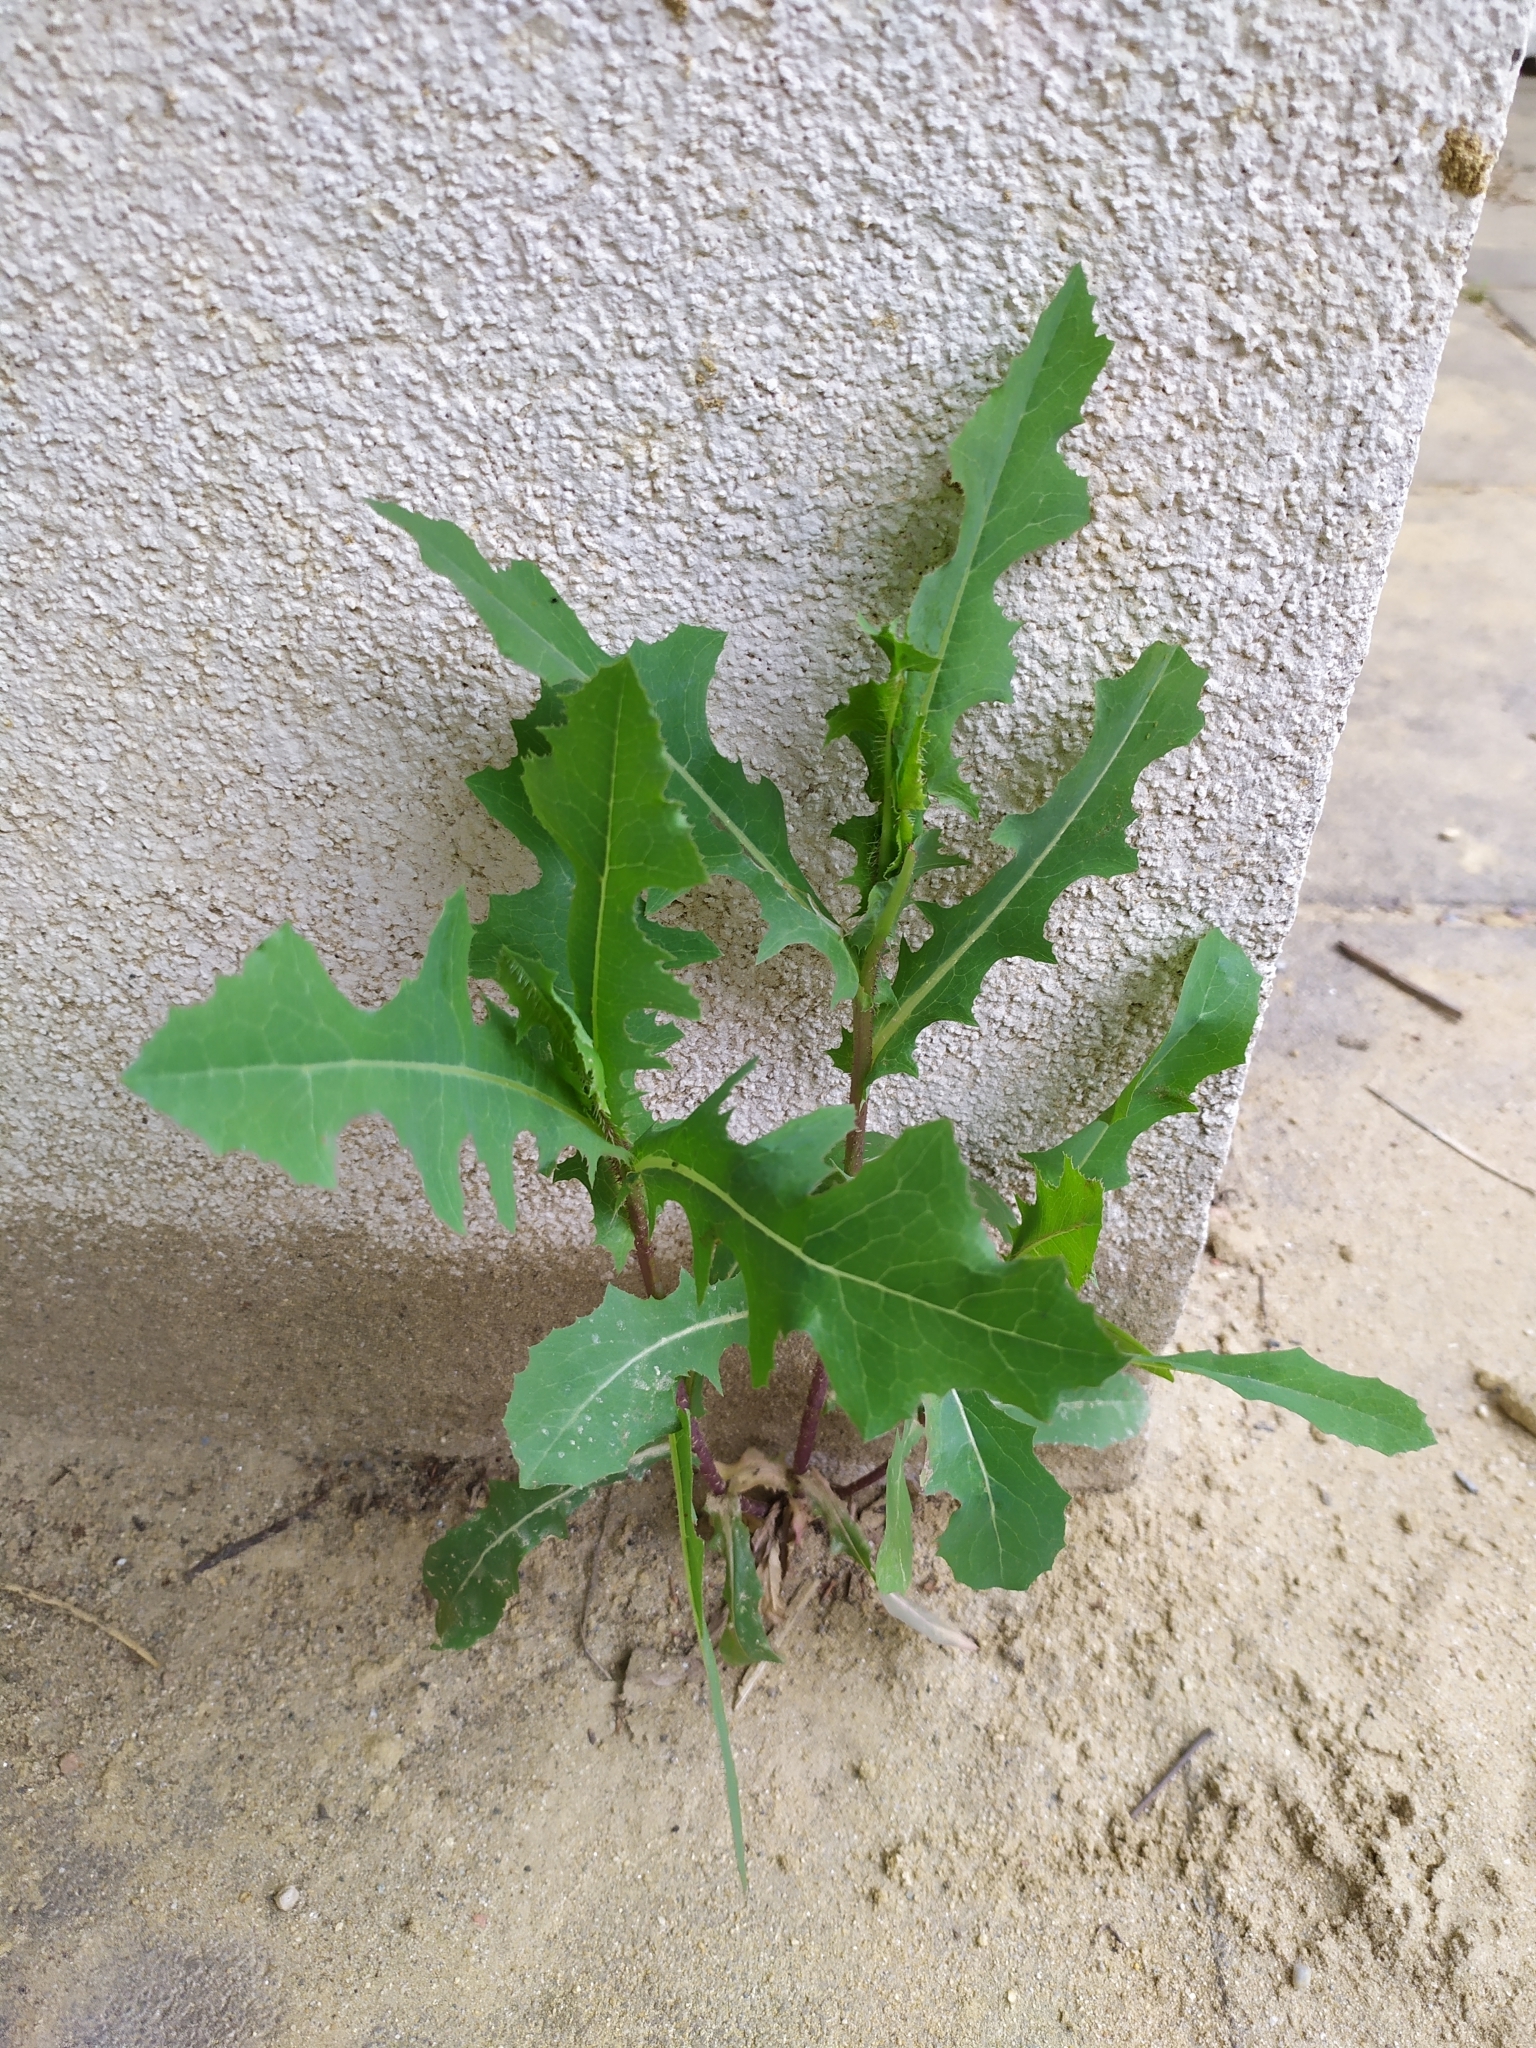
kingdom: Plantae
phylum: Tracheophyta
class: Magnoliopsida
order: Asterales
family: Asteraceae
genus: Lactuca
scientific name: Lactuca serriola
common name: Prickly lettuce
